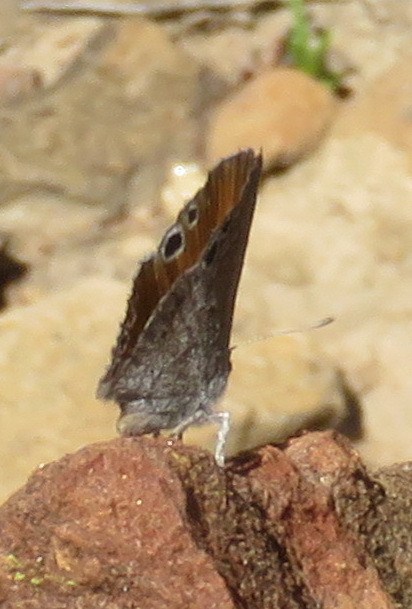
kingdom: Animalia
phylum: Arthropoda
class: Insecta
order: Lepidoptera
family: Lycaenidae
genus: Leptomyrina
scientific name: Leptomyrina lara
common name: Cape black-eye
